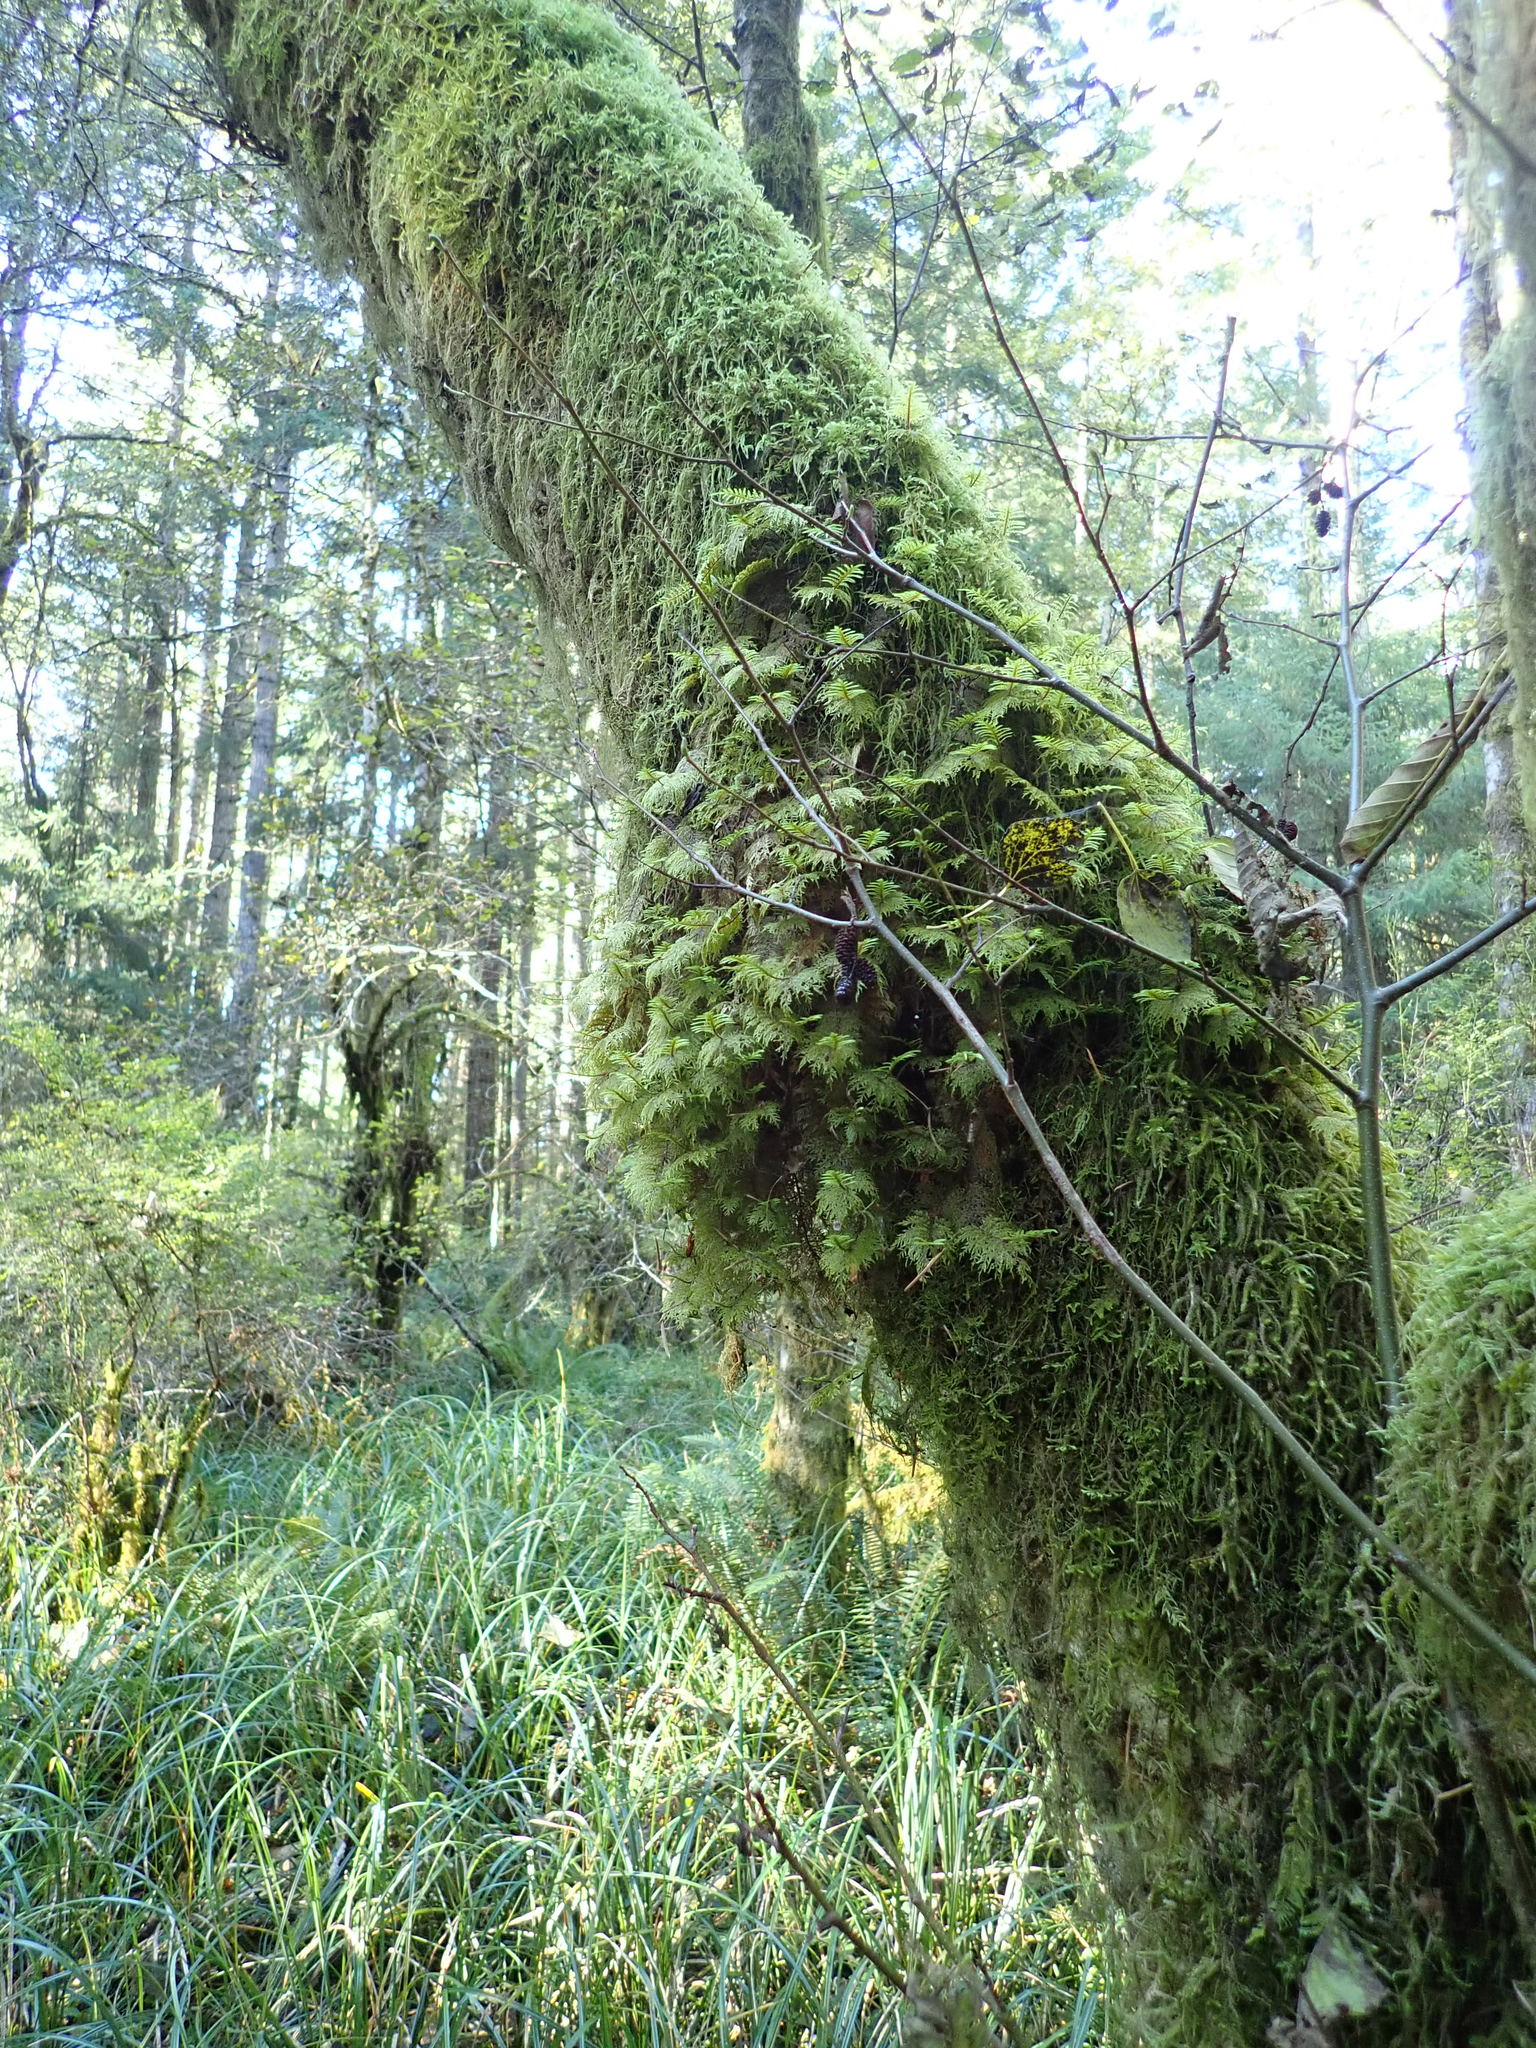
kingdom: Plantae
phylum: Bryophyta
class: Bryopsida
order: Hypnales
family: Hylocomiaceae
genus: Hylocomium
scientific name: Hylocomium splendens
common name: Stairstep moss
